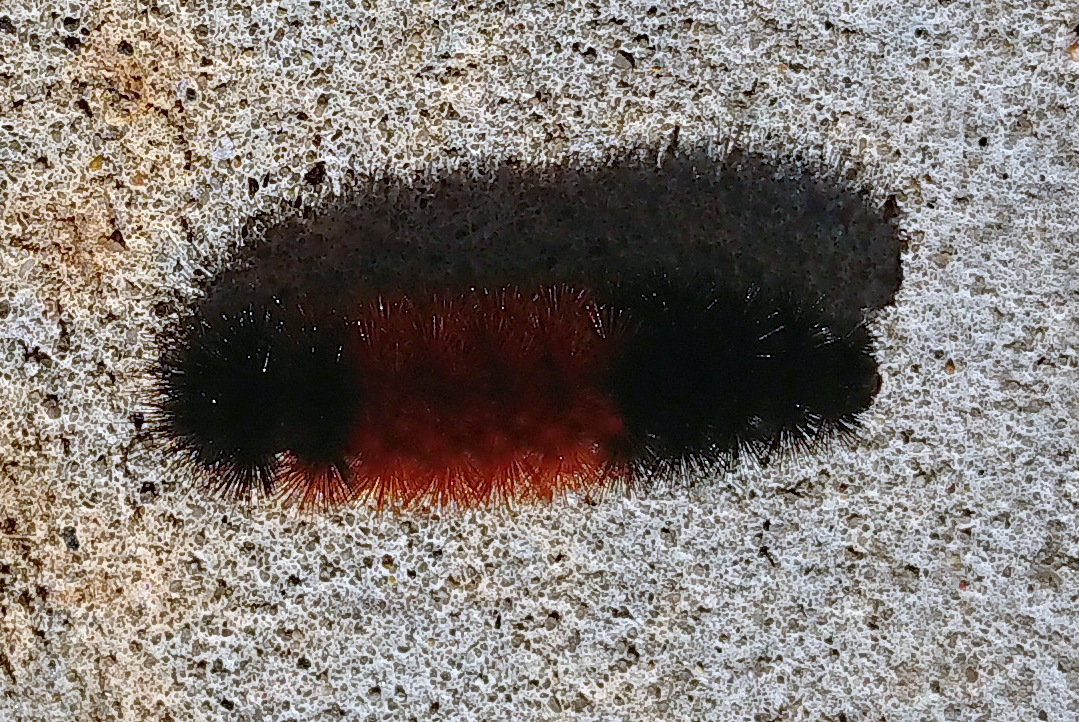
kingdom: Animalia
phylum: Arthropoda
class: Insecta
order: Lepidoptera
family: Erebidae
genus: Pyrrharctia
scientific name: Pyrrharctia isabella
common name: Isabella tiger moth
